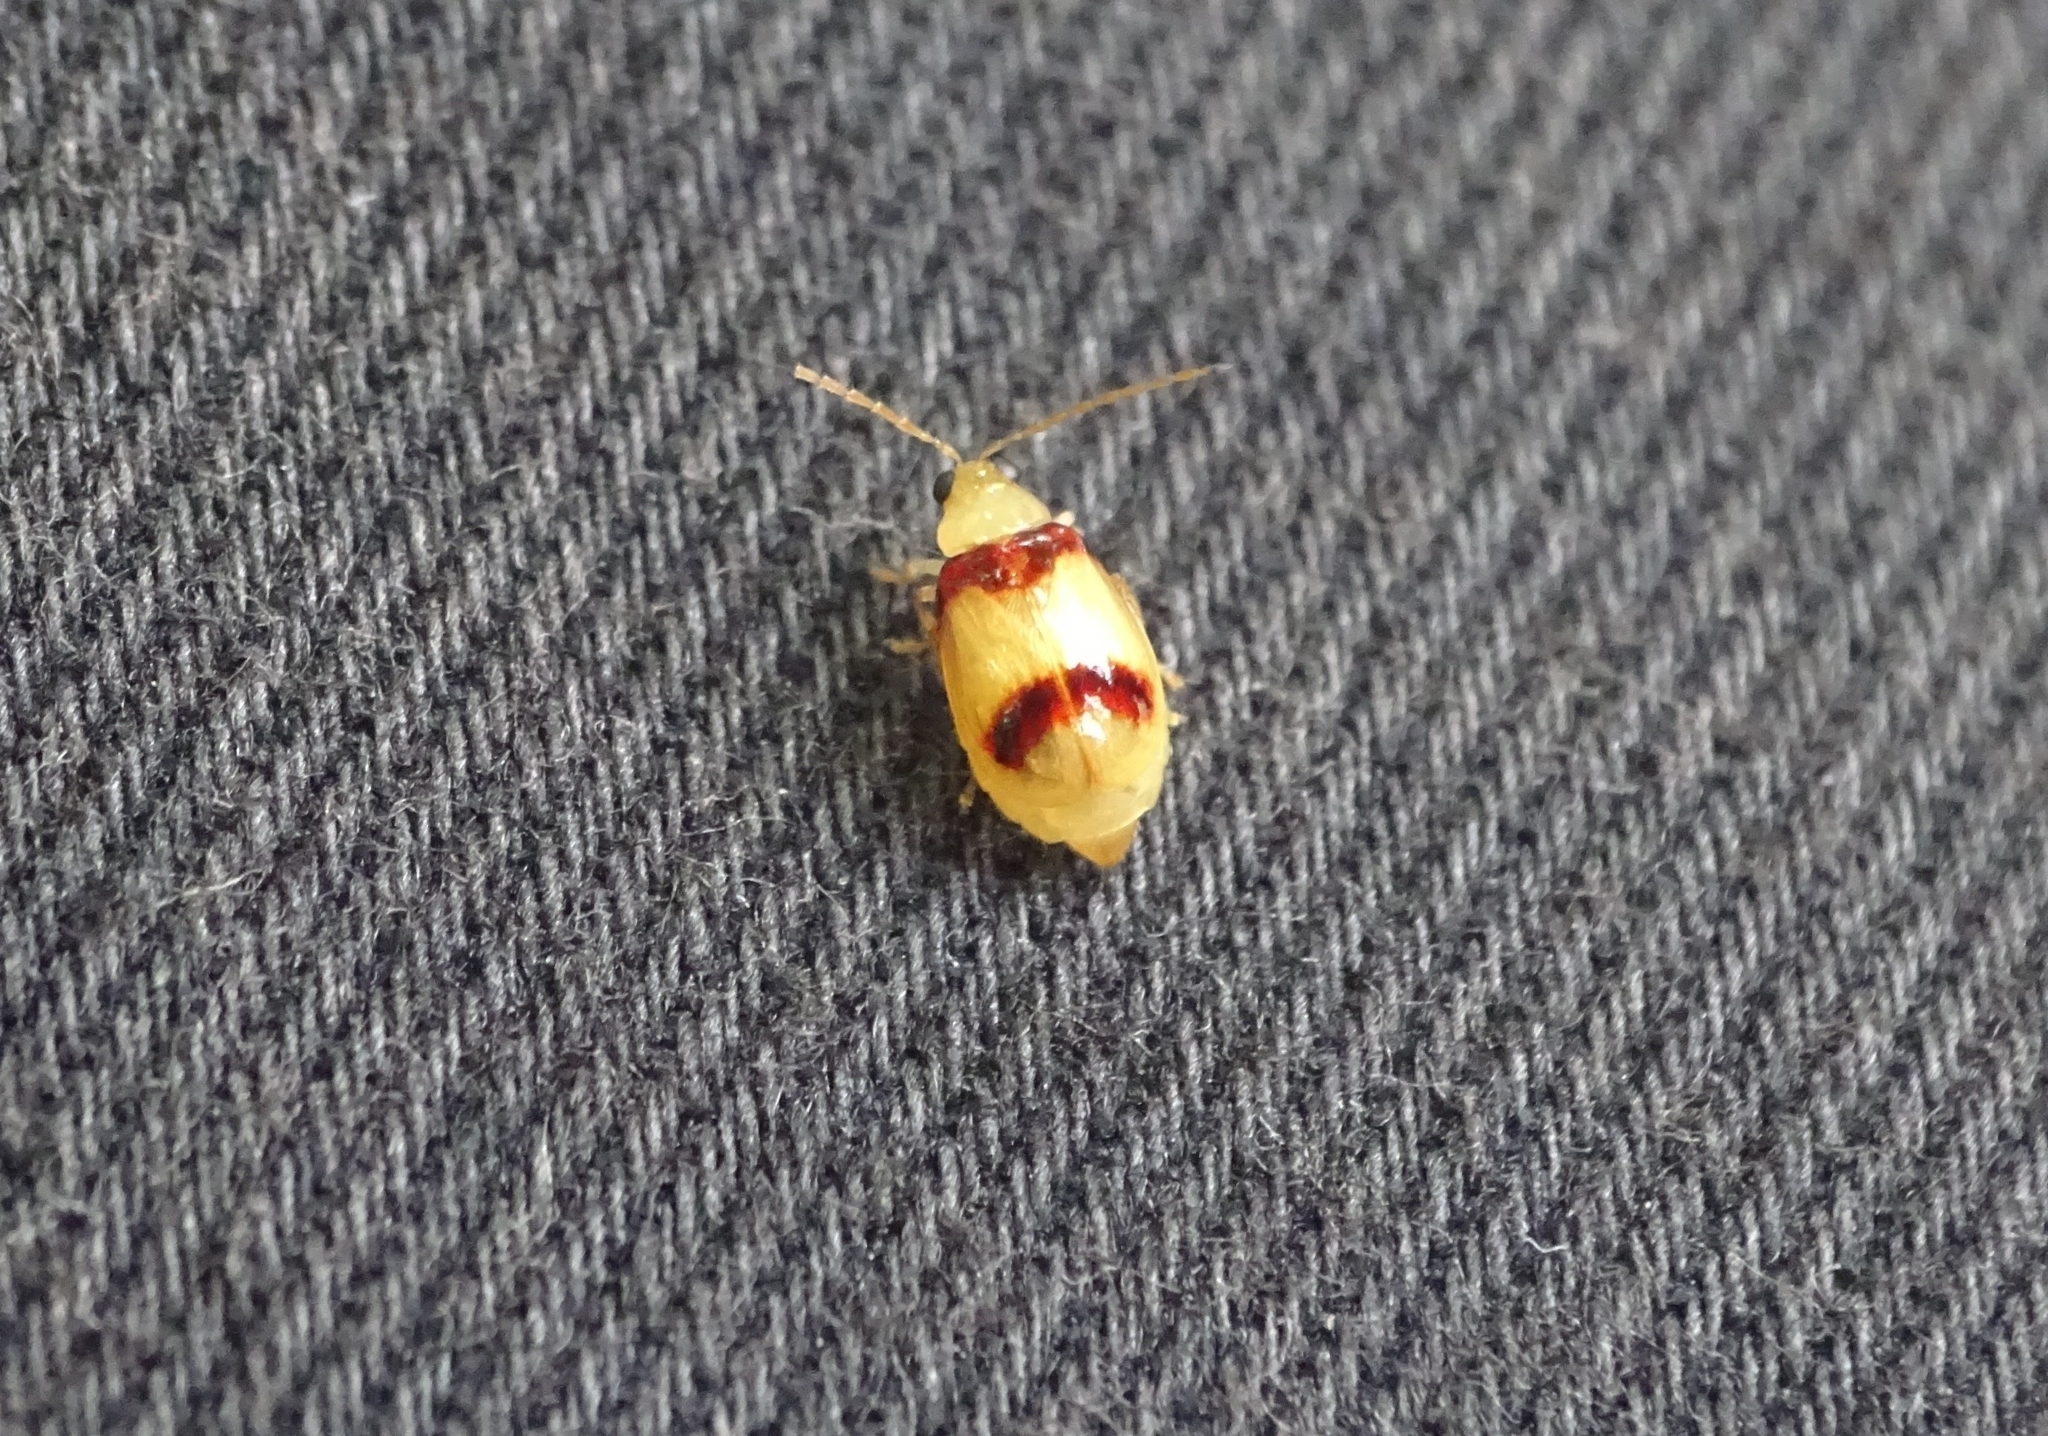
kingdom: Animalia
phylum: Arthropoda
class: Insecta
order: Coleoptera
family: Chrysomelidae
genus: Monolepta
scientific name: Monolepta
